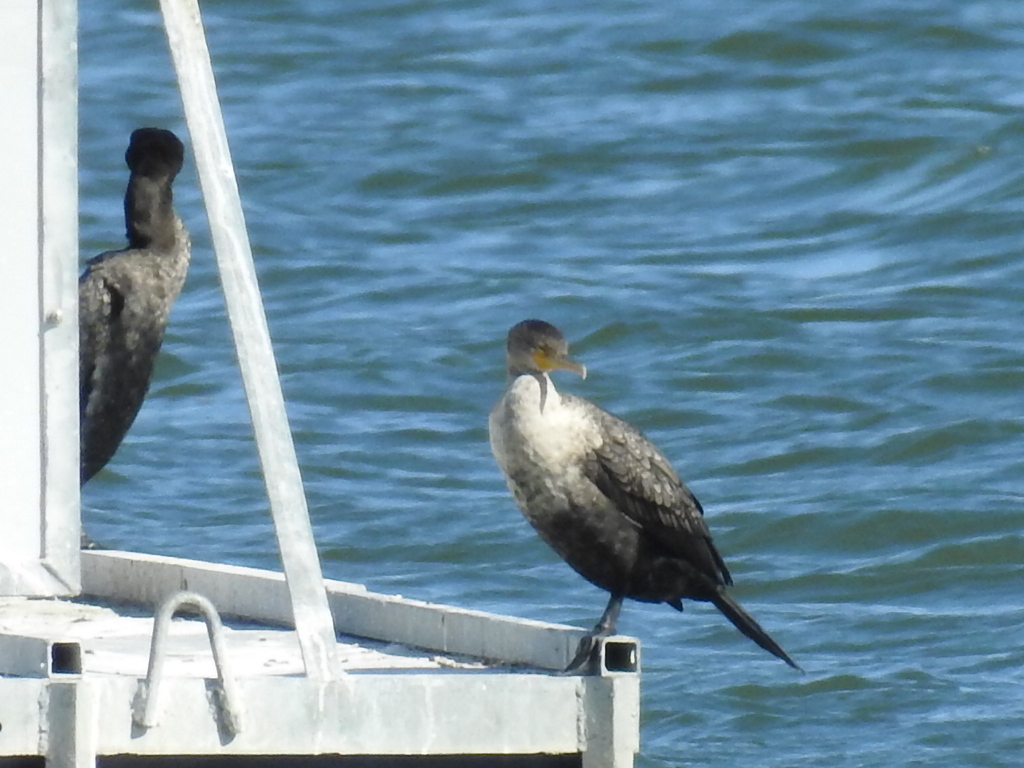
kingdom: Animalia
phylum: Chordata
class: Aves
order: Suliformes
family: Phalacrocoracidae
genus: Phalacrocorax
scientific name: Phalacrocorax auritus
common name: Double-crested cormorant
